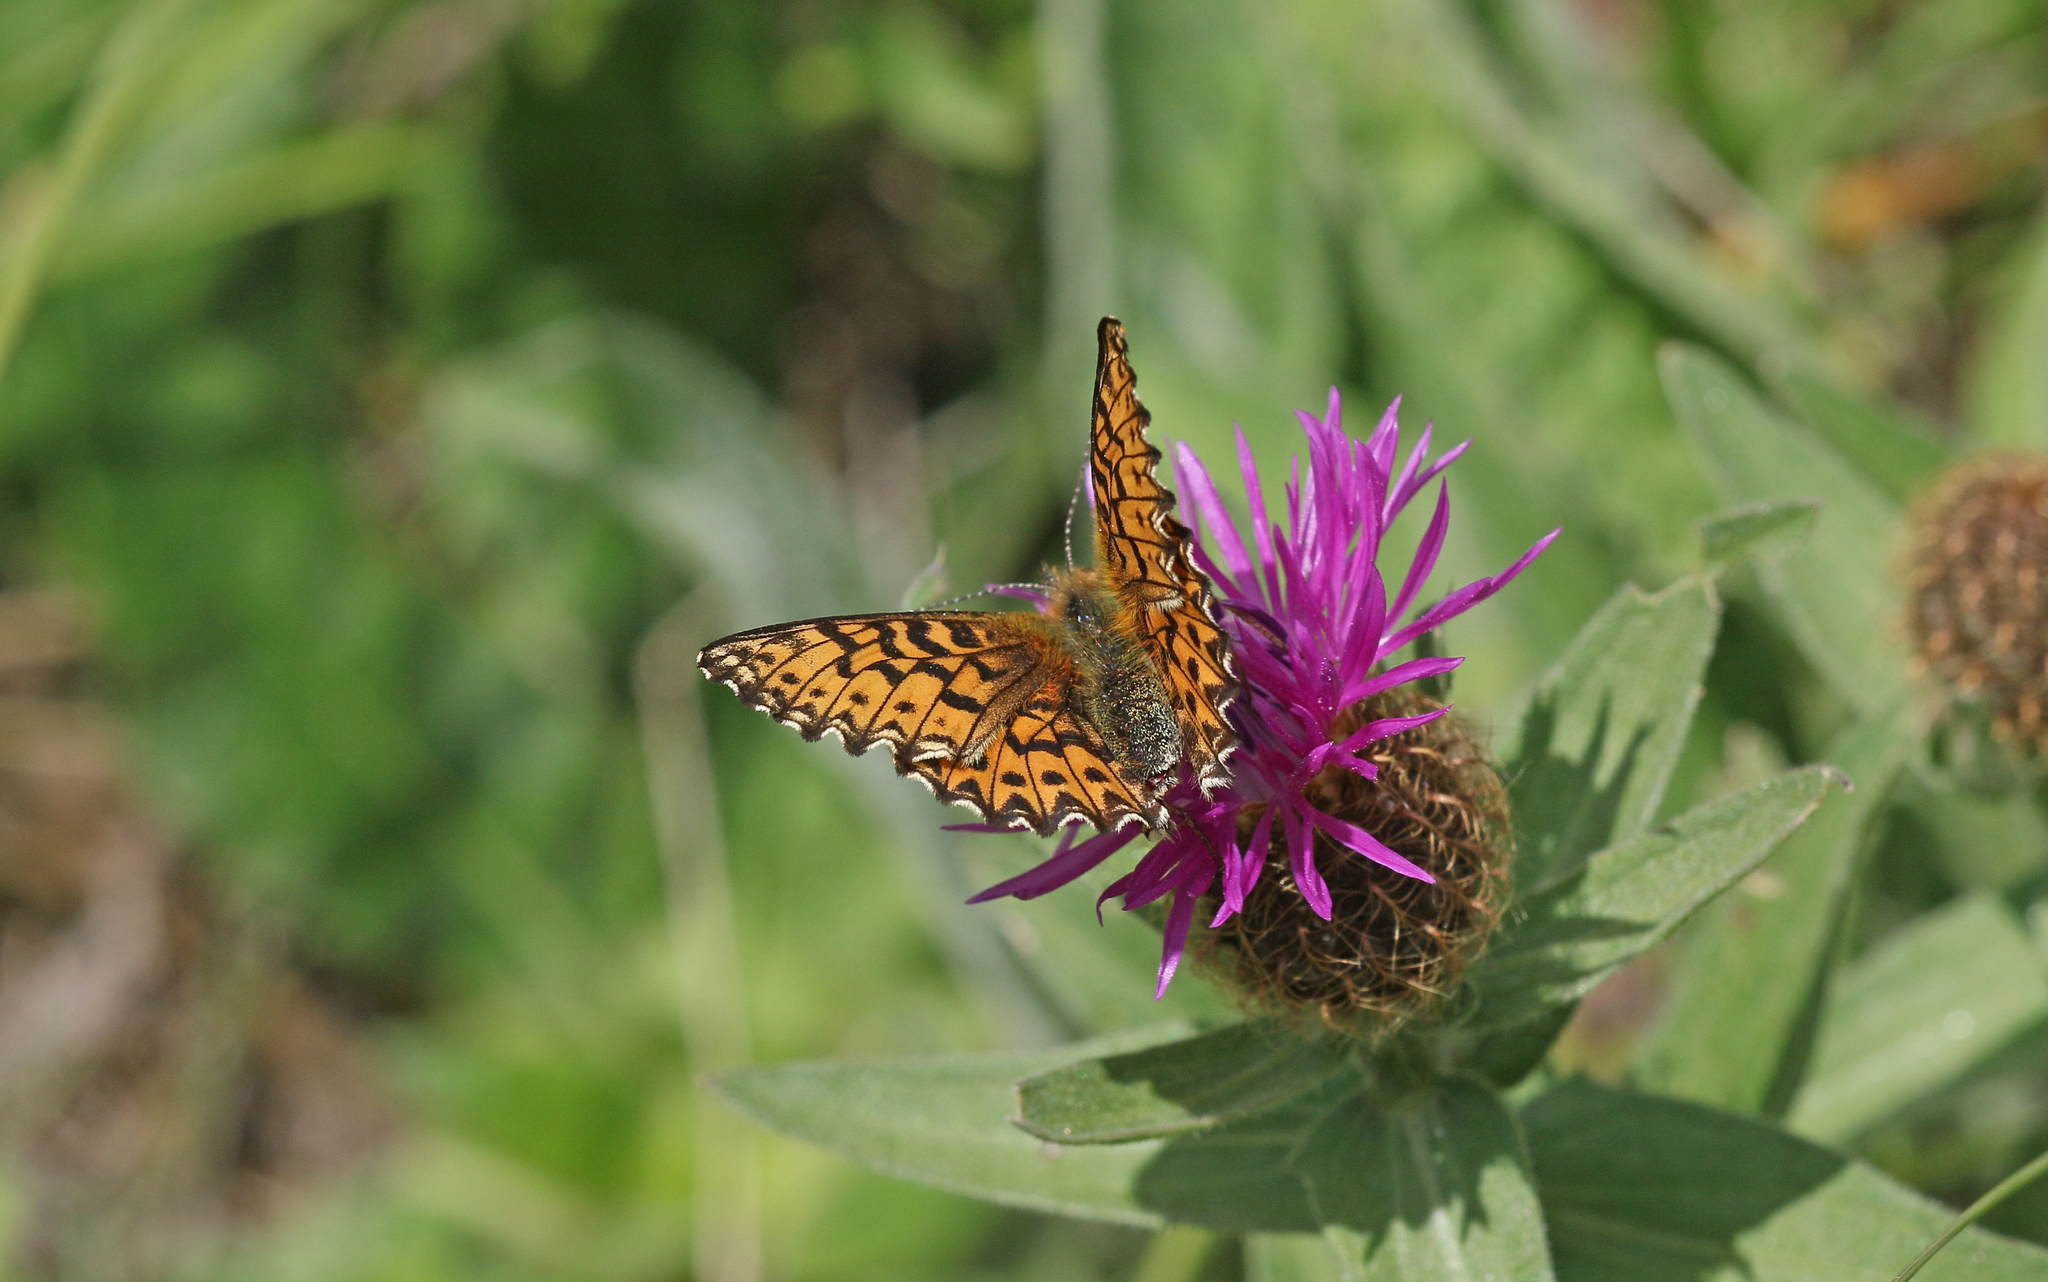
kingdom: Animalia
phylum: Arthropoda
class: Insecta
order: Lepidoptera
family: Nymphalidae
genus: Boloria
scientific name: Boloria titania
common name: Titania's fritillary
